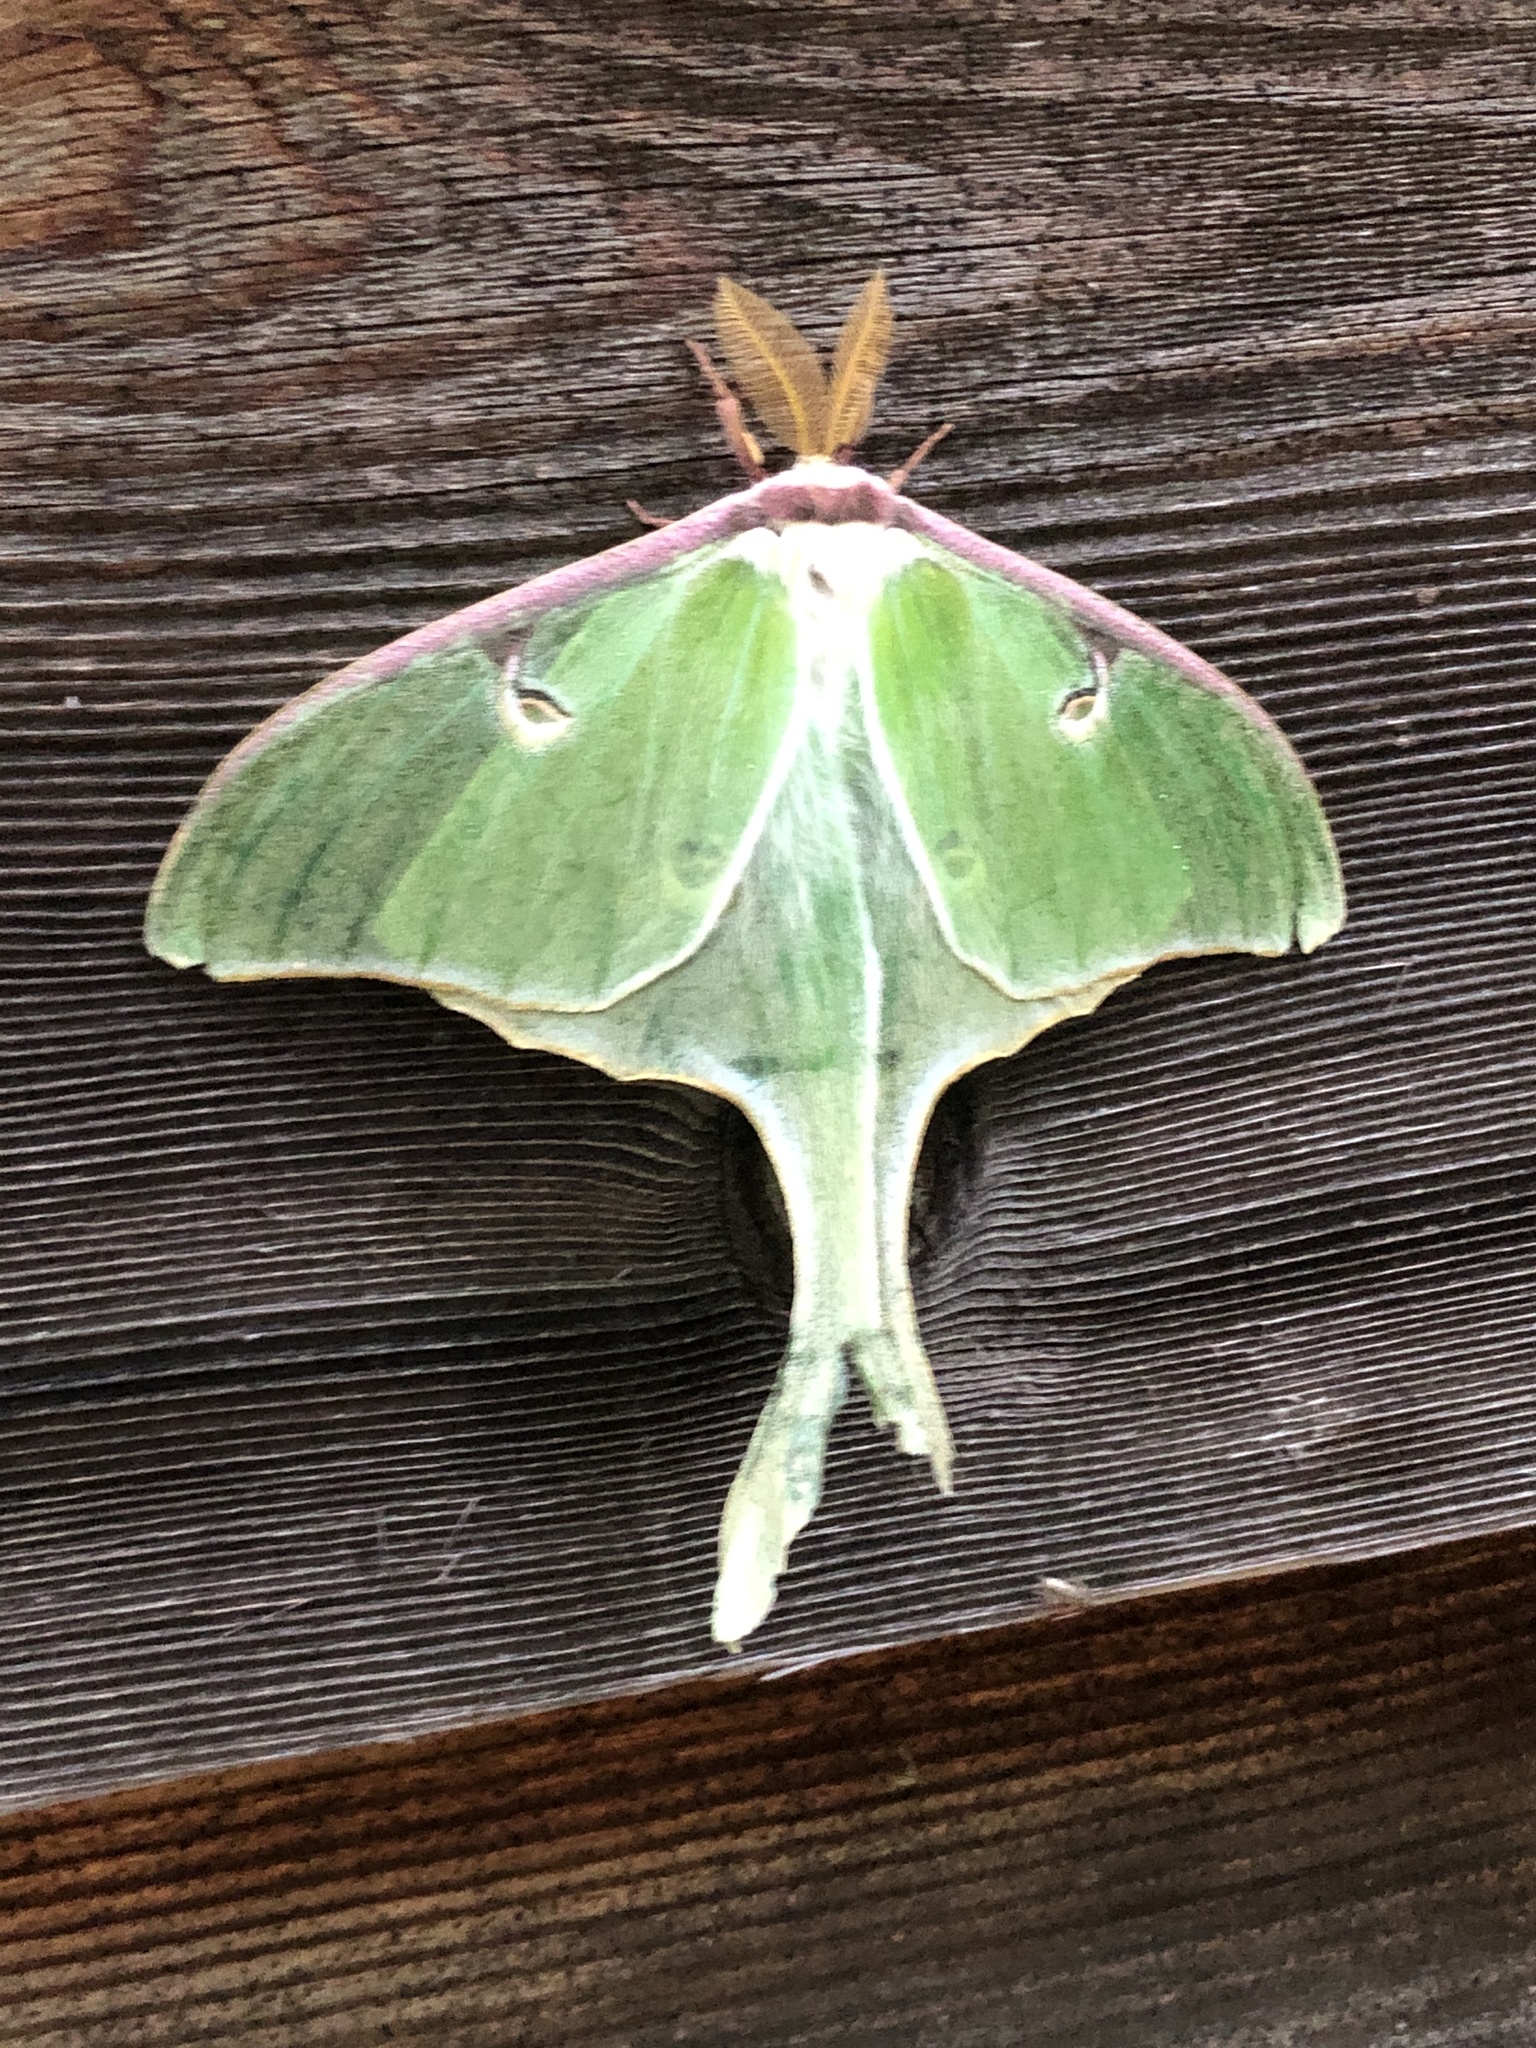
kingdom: Animalia
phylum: Arthropoda
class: Insecta
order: Lepidoptera
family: Saturniidae
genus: Actias
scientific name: Actias luna
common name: Luna moth
